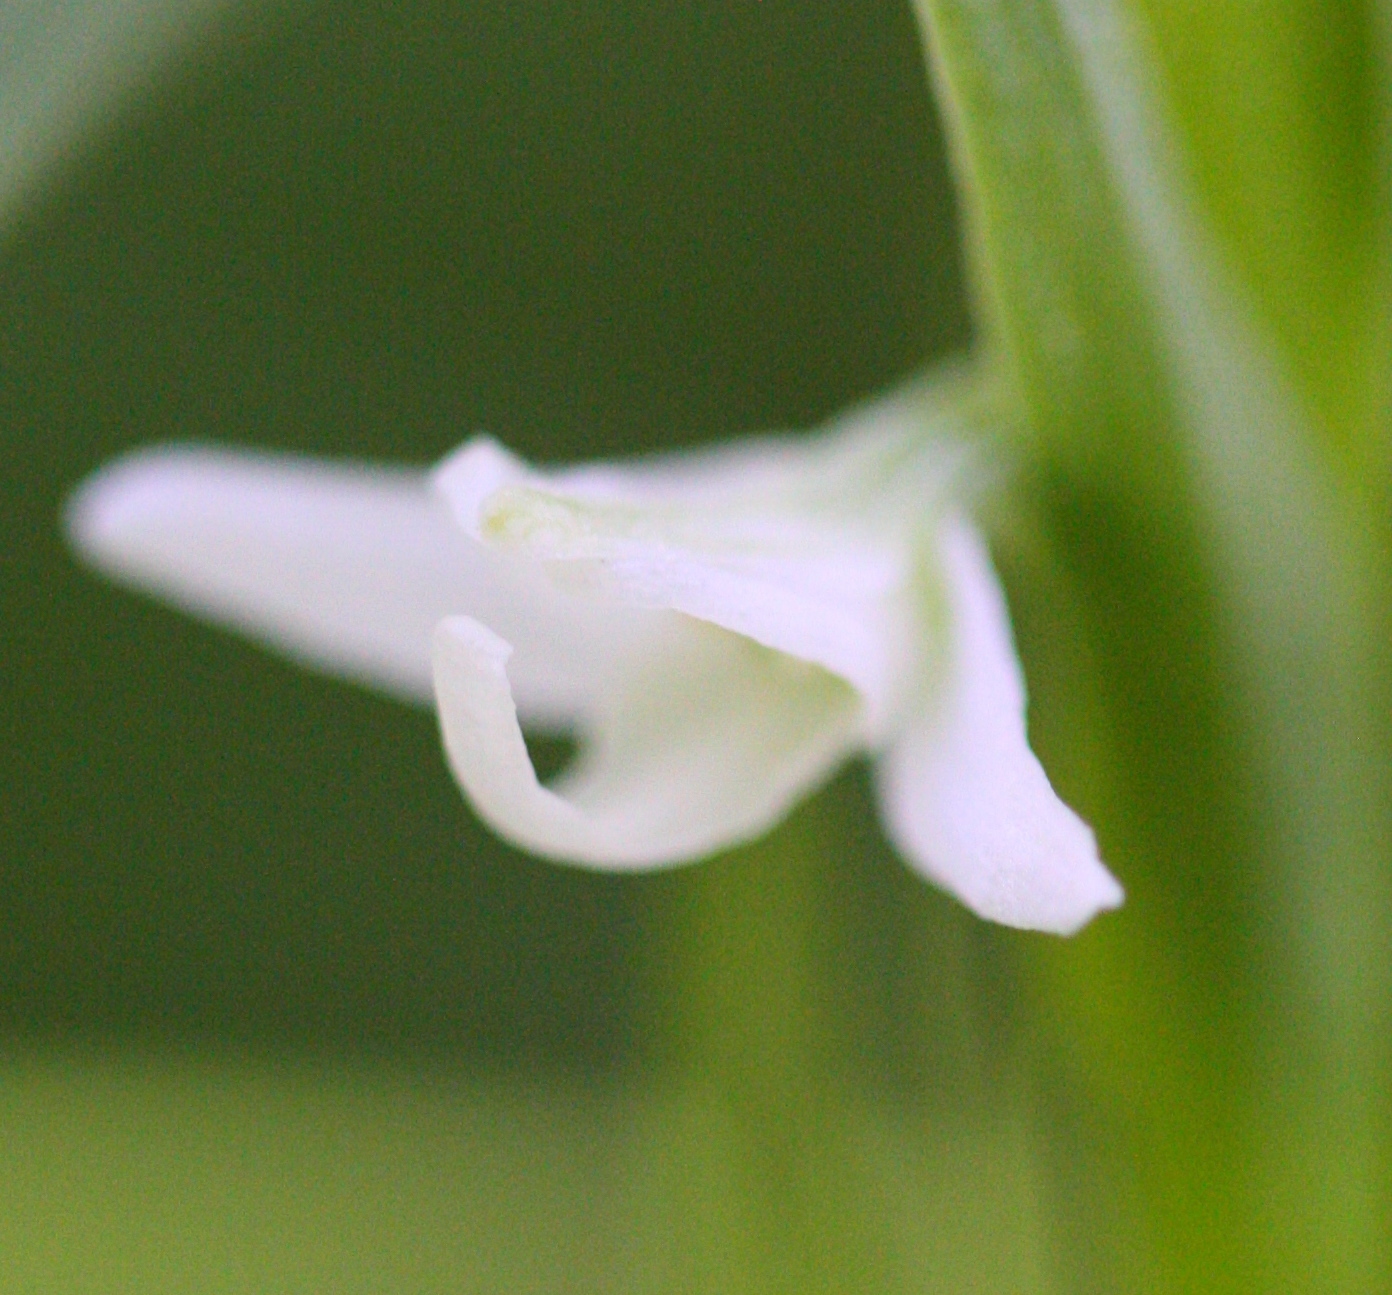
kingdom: Plantae
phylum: Tracheophyta
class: Liliopsida
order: Asparagales
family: Orchidaceae
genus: Platanthera
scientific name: Platanthera dilatata
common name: Bog candles
